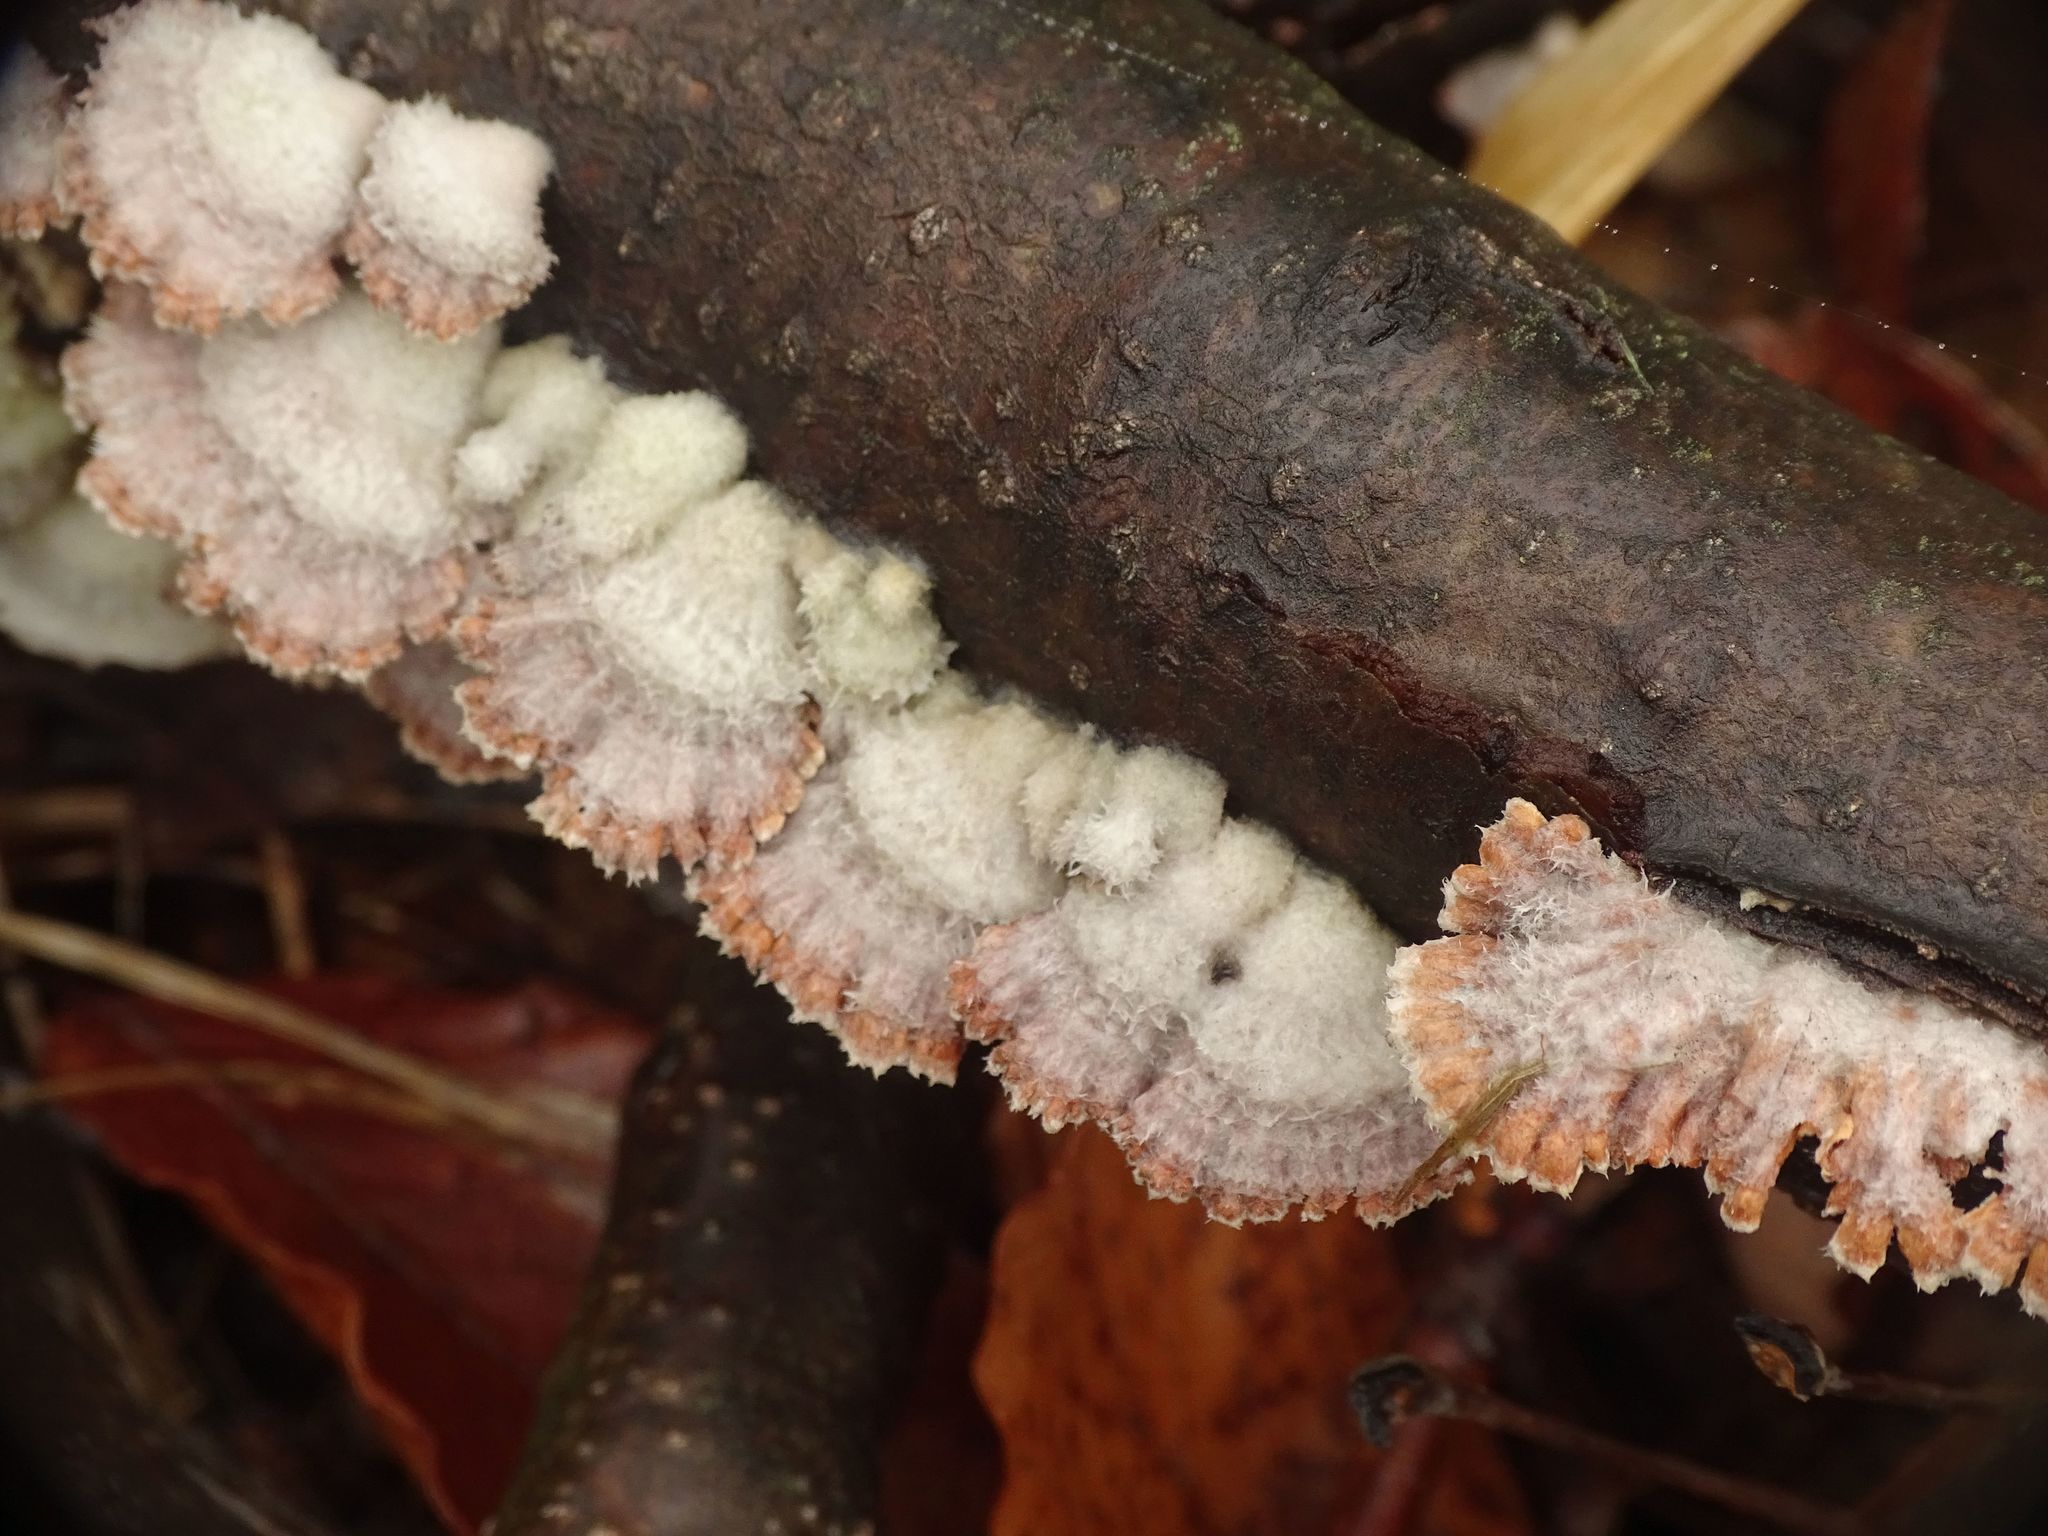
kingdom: Fungi
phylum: Basidiomycota
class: Agaricomycetes
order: Agaricales
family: Schizophyllaceae
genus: Schizophyllum
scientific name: Schizophyllum commune
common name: Common porecrust
